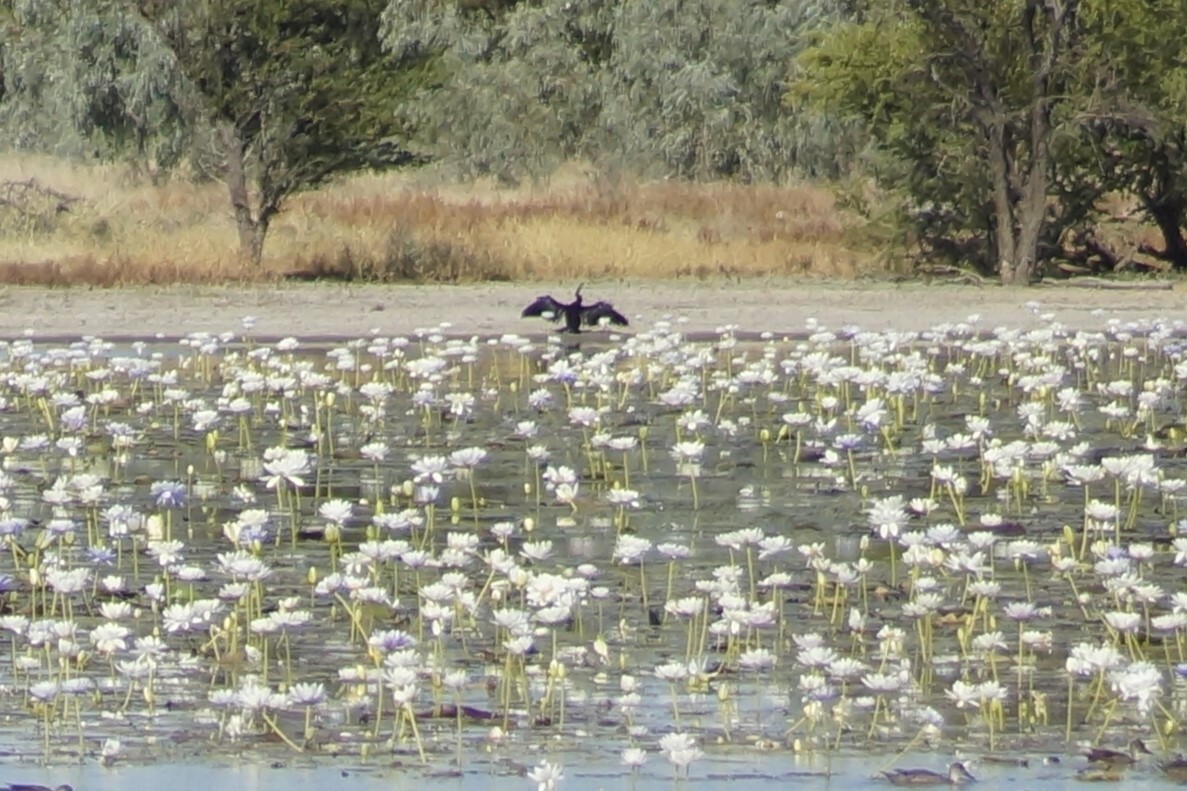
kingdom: Animalia
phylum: Chordata
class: Aves
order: Suliformes
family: Anhingidae
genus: Anhinga
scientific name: Anhinga novaehollandiae
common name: Australasian darter
